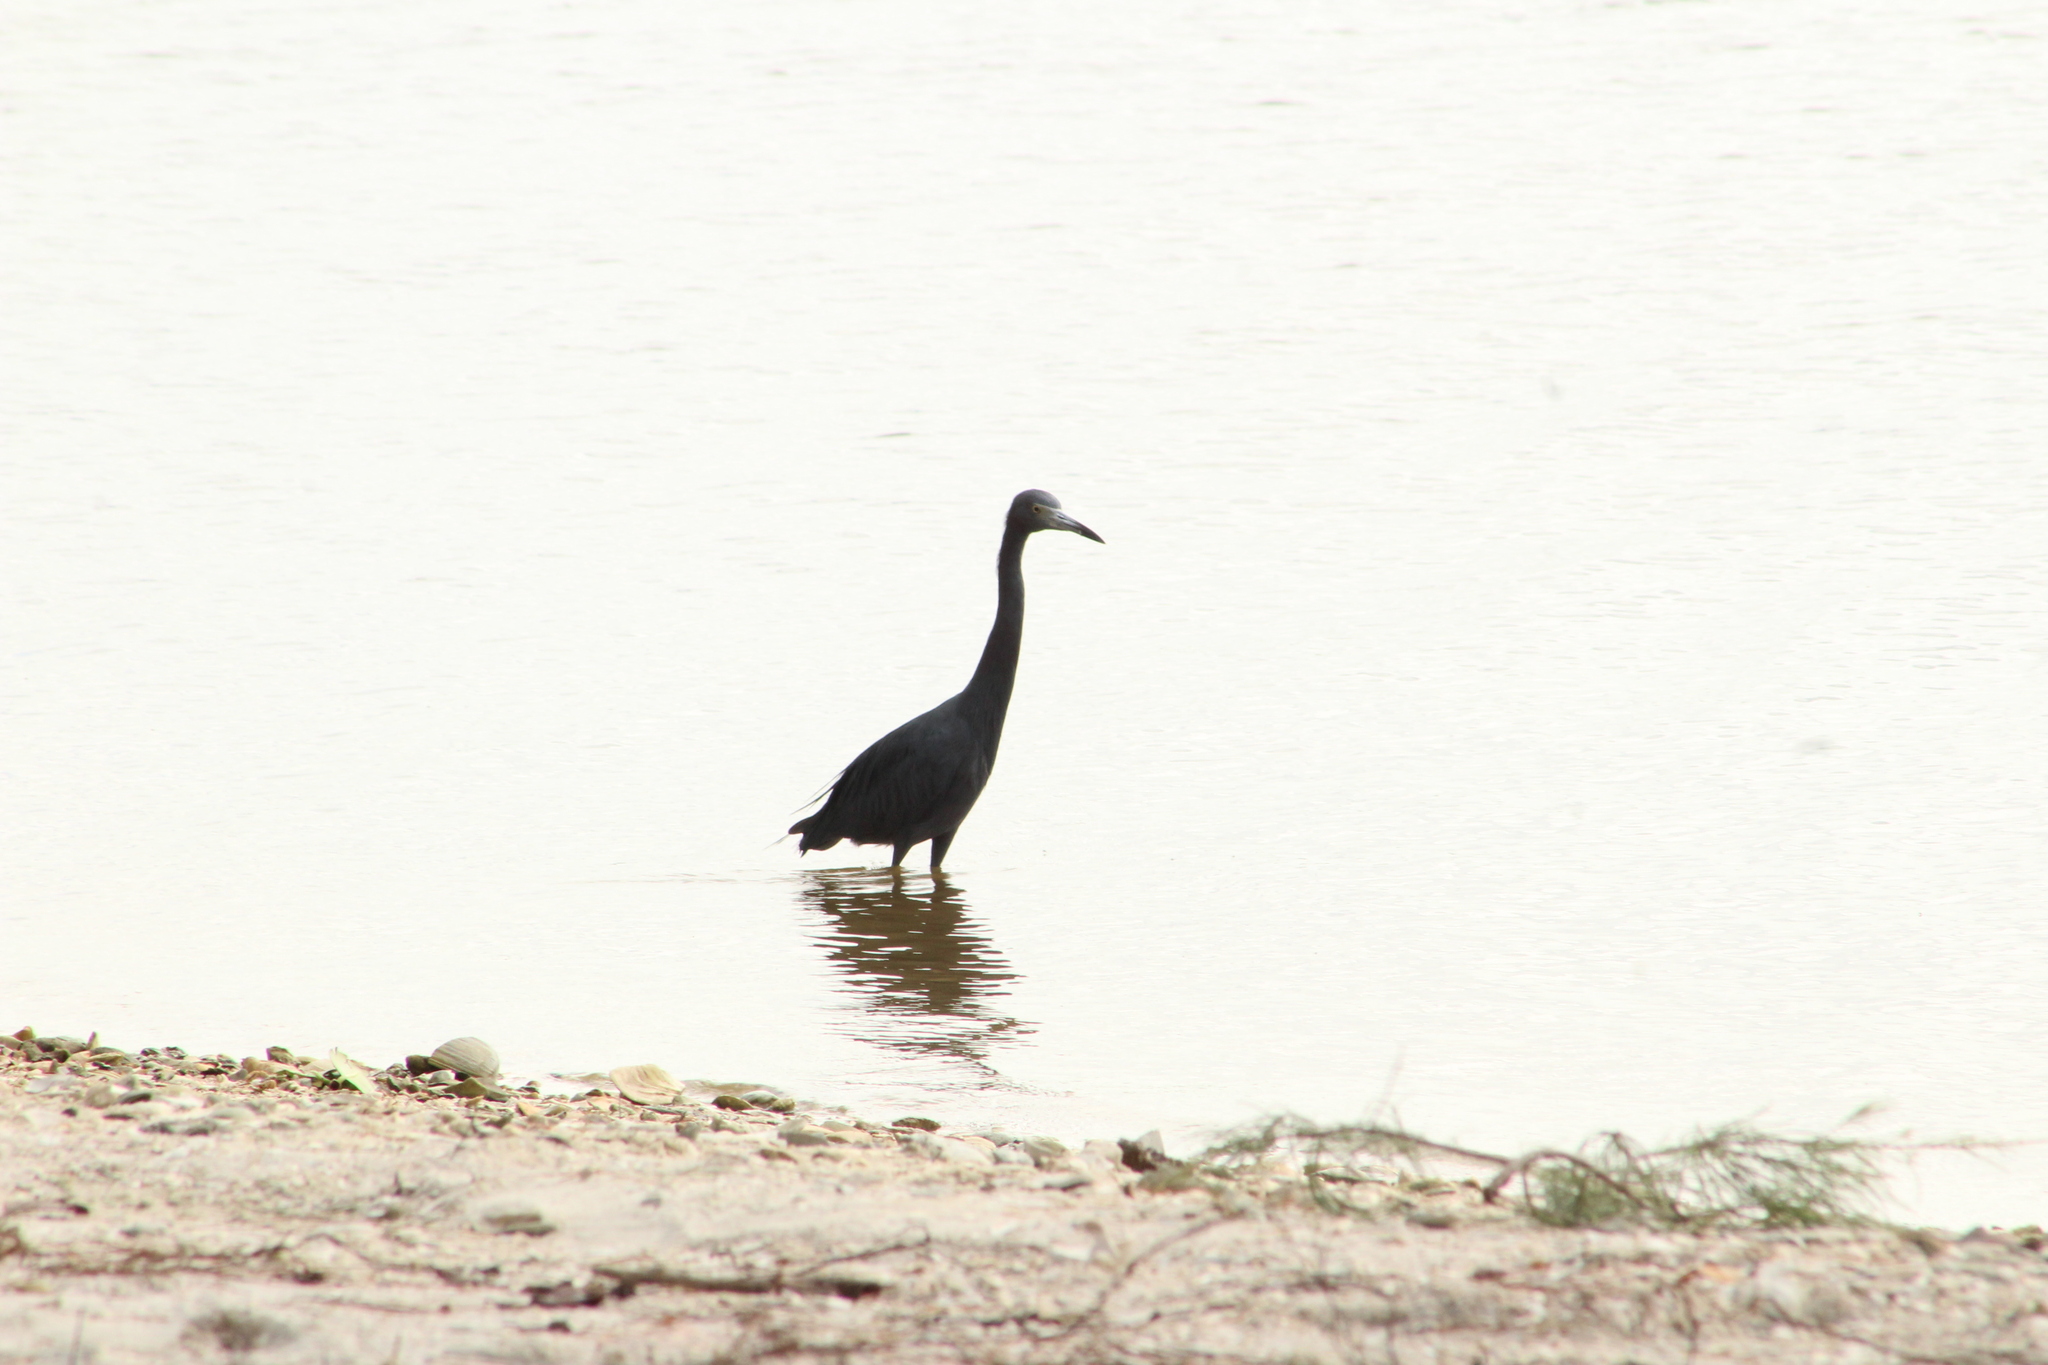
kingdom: Animalia
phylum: Chordata
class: Aves
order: Pelecaniformes
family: Ardeidae
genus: Egretta
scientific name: Egretta caerulea
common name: Little blue heron
